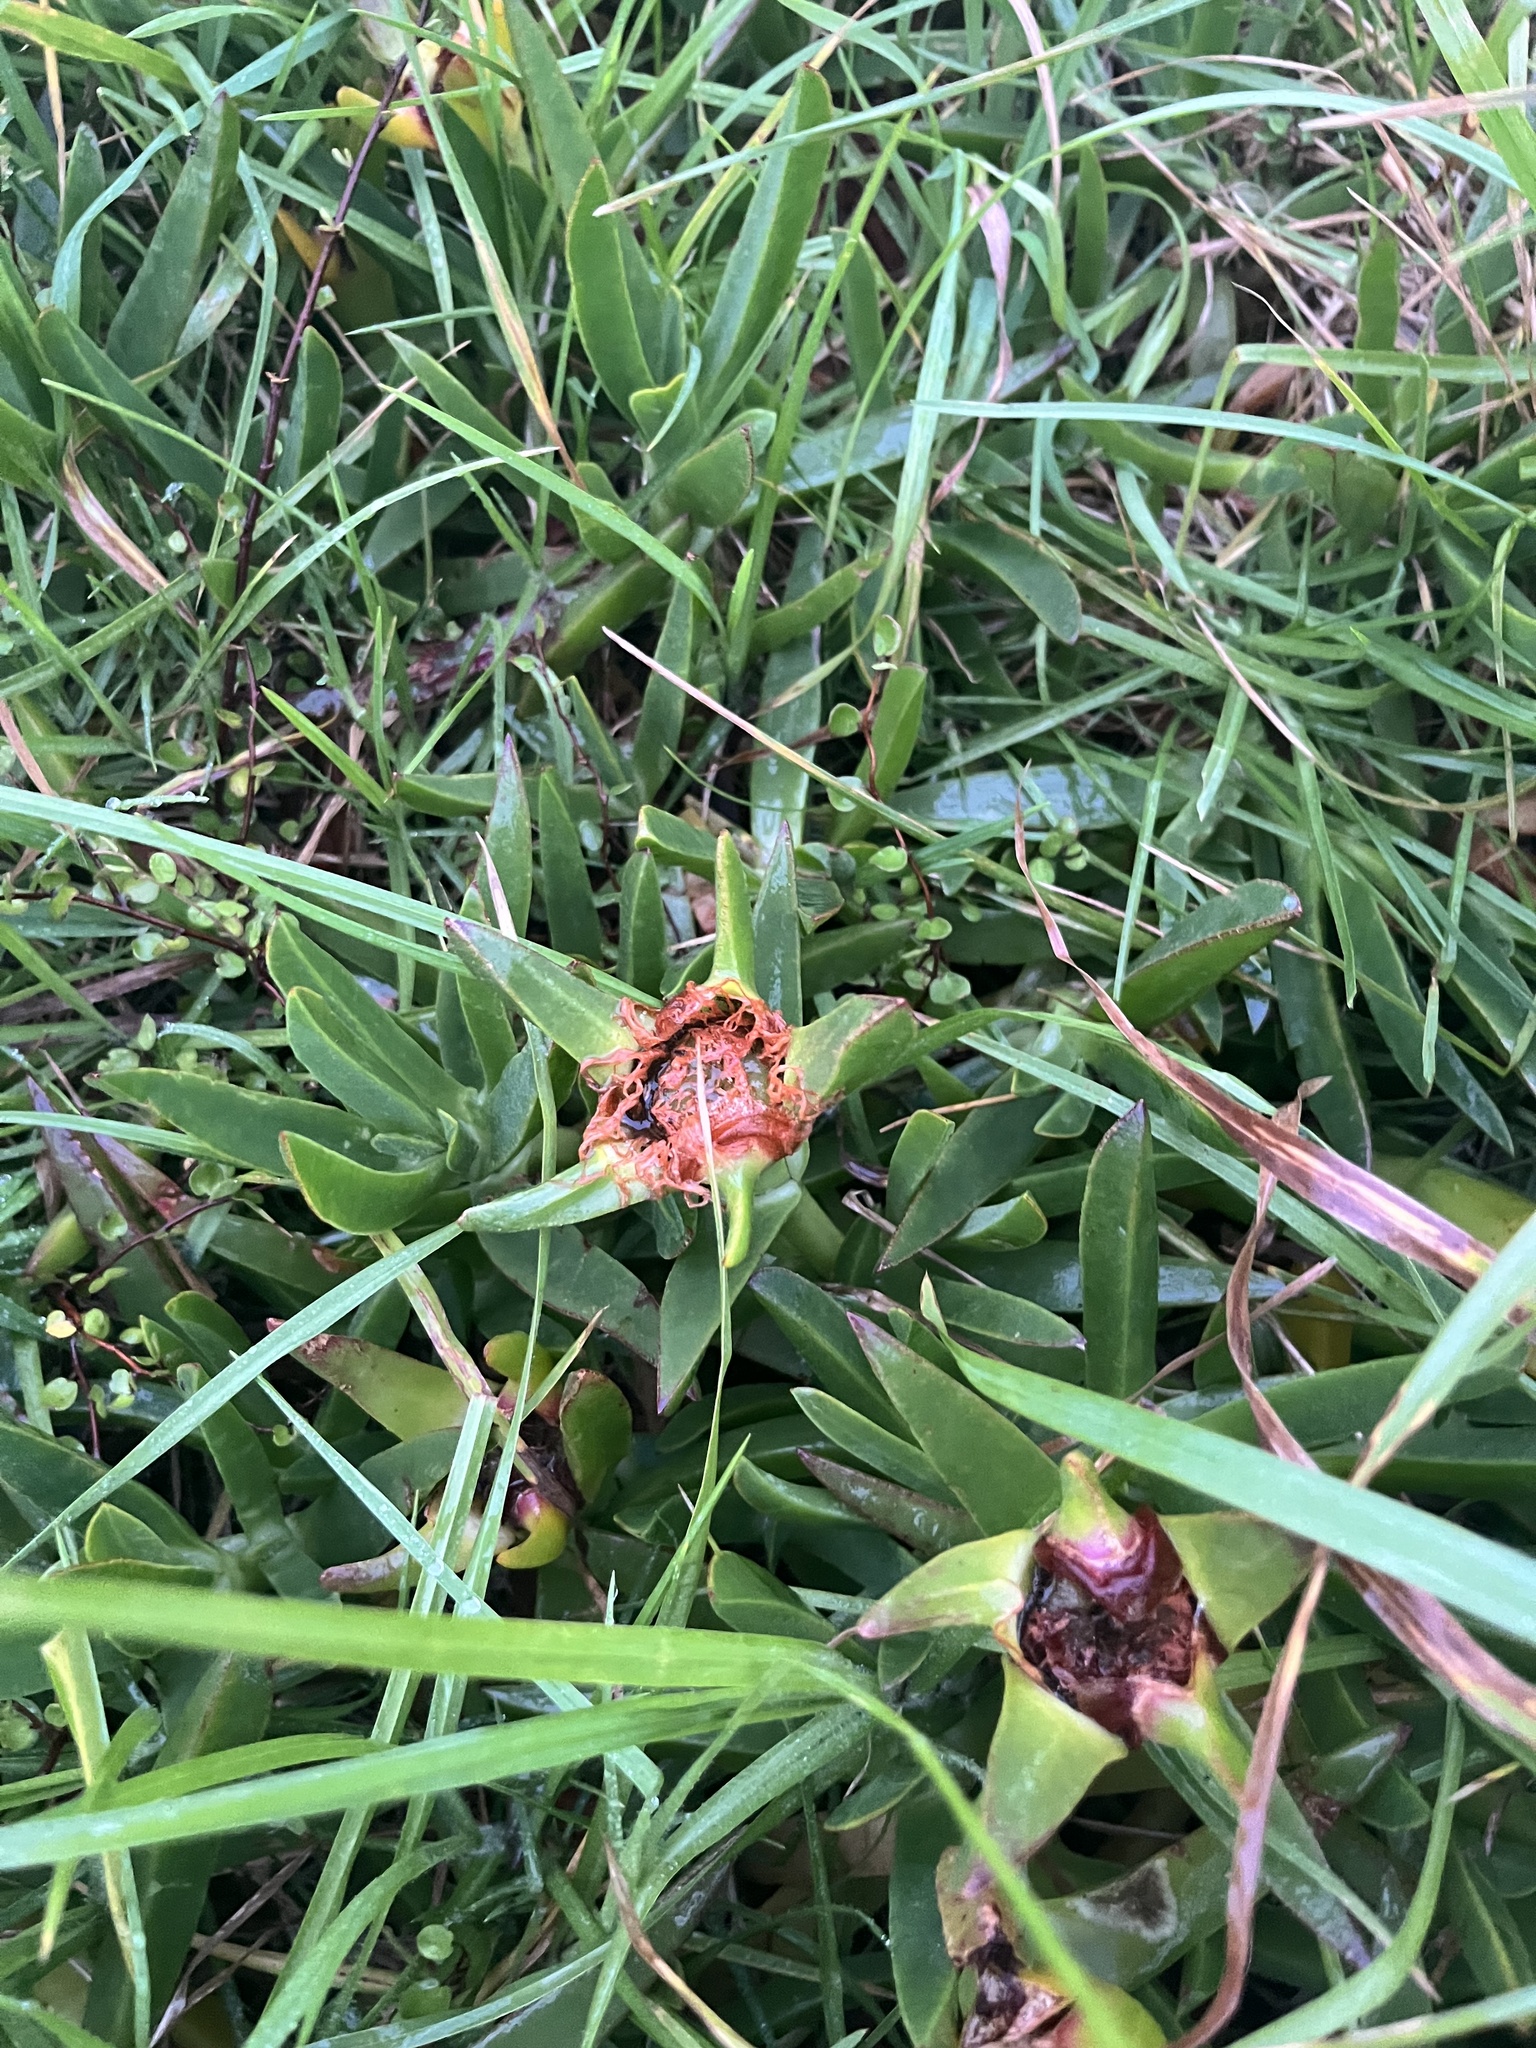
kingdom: Plantae
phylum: Tracheophyta
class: Magnoliopsida
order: Caryophyllales
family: Aizoaceae
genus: Carpobrotus
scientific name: Carpobrotus edulis
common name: Hottentot-fig
